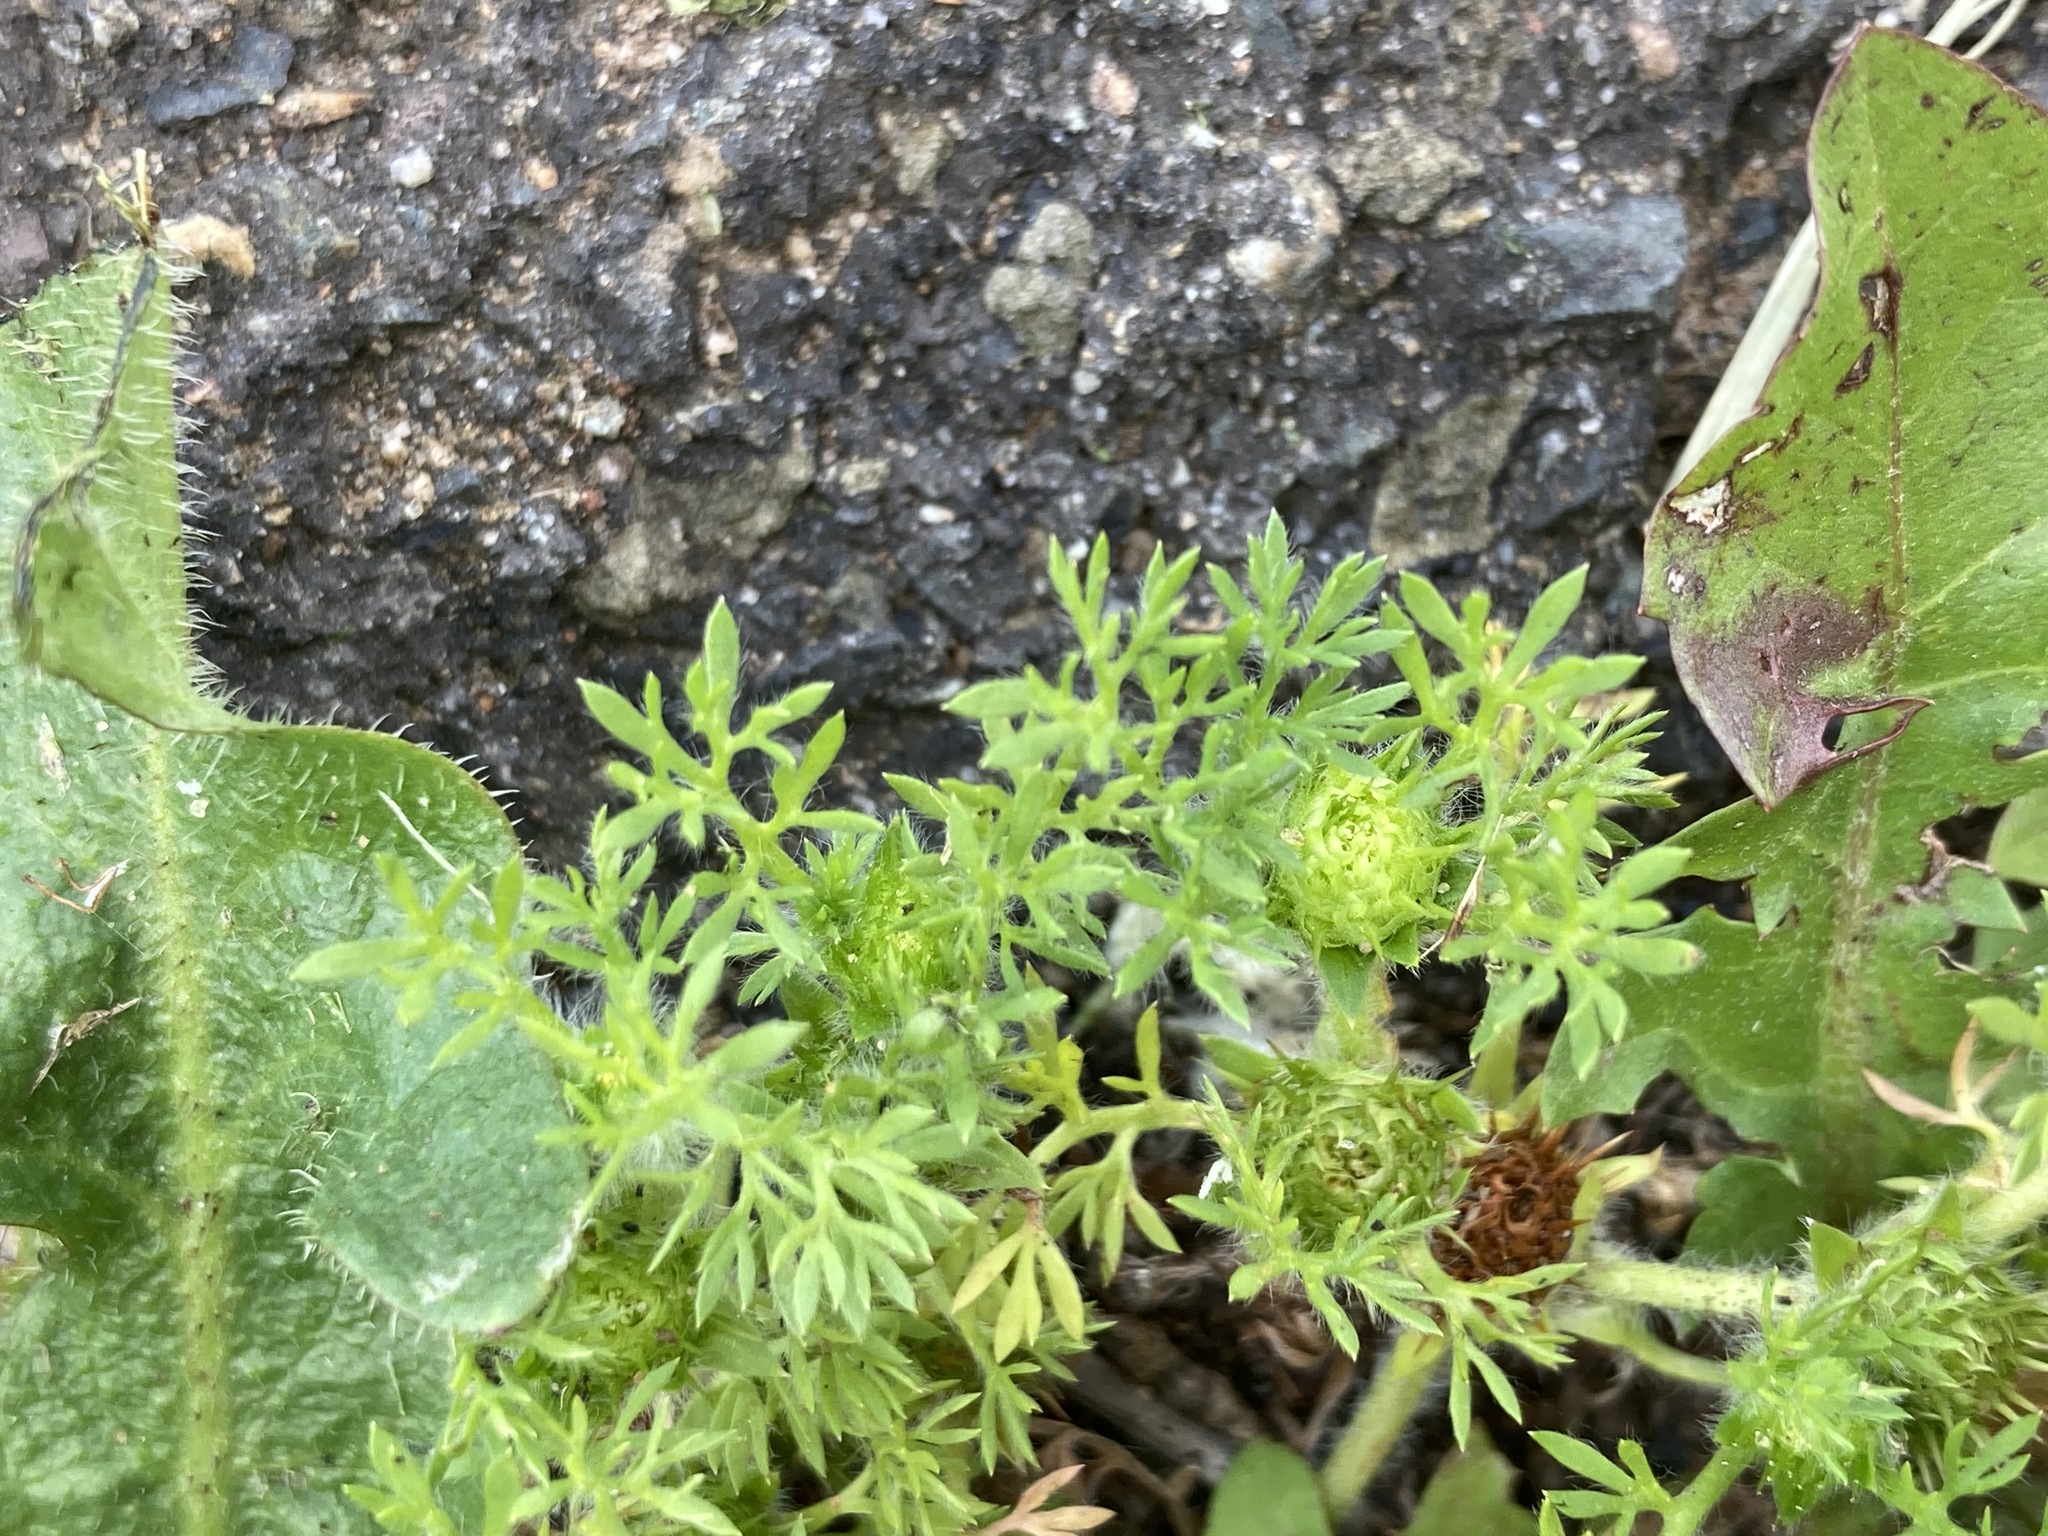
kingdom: Plantae
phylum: Tracheophyta
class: Magnoliopsida
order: Asterales
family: Asteraceae
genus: Soliva
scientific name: Soliva sessilis
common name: Field burrweed
